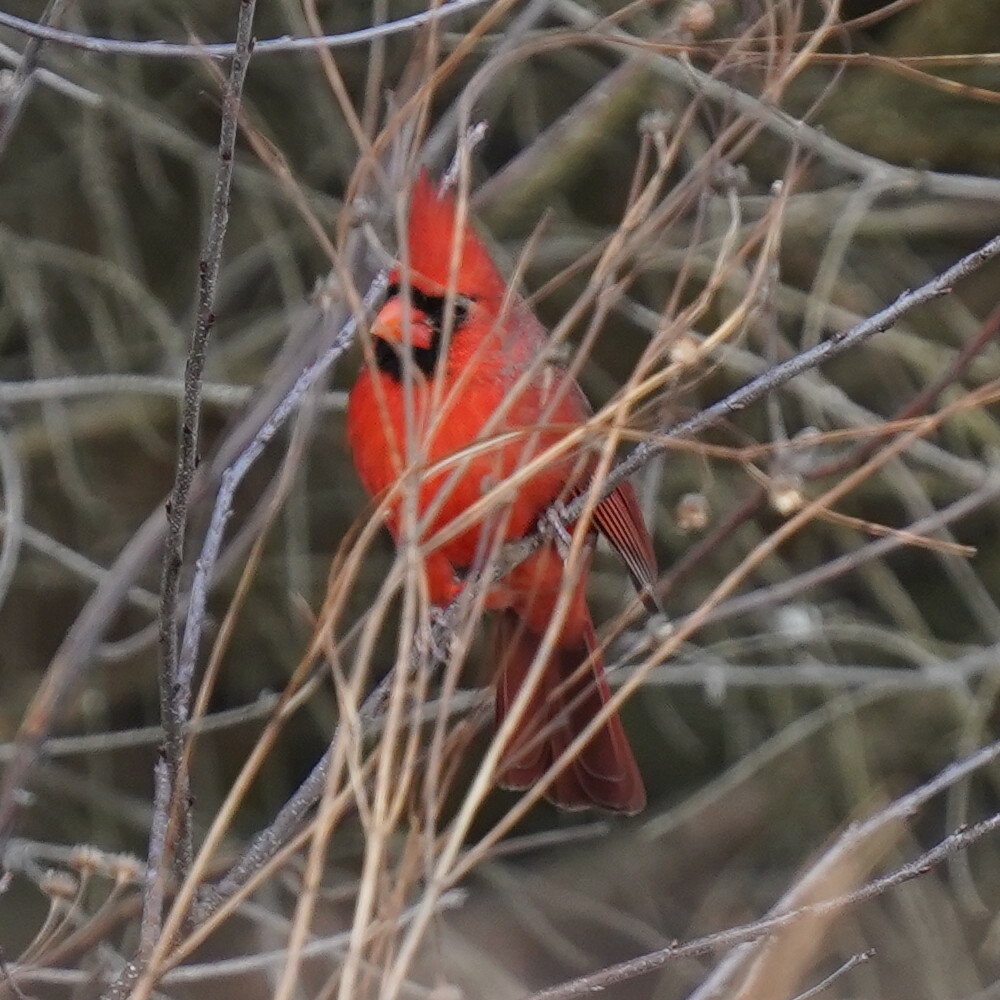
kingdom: Animalia
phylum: Chordata
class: Aves
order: Passeriformes
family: Cardinalidae
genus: Cardinalis
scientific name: Cardinalis cardinalis
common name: Northern cardinal
